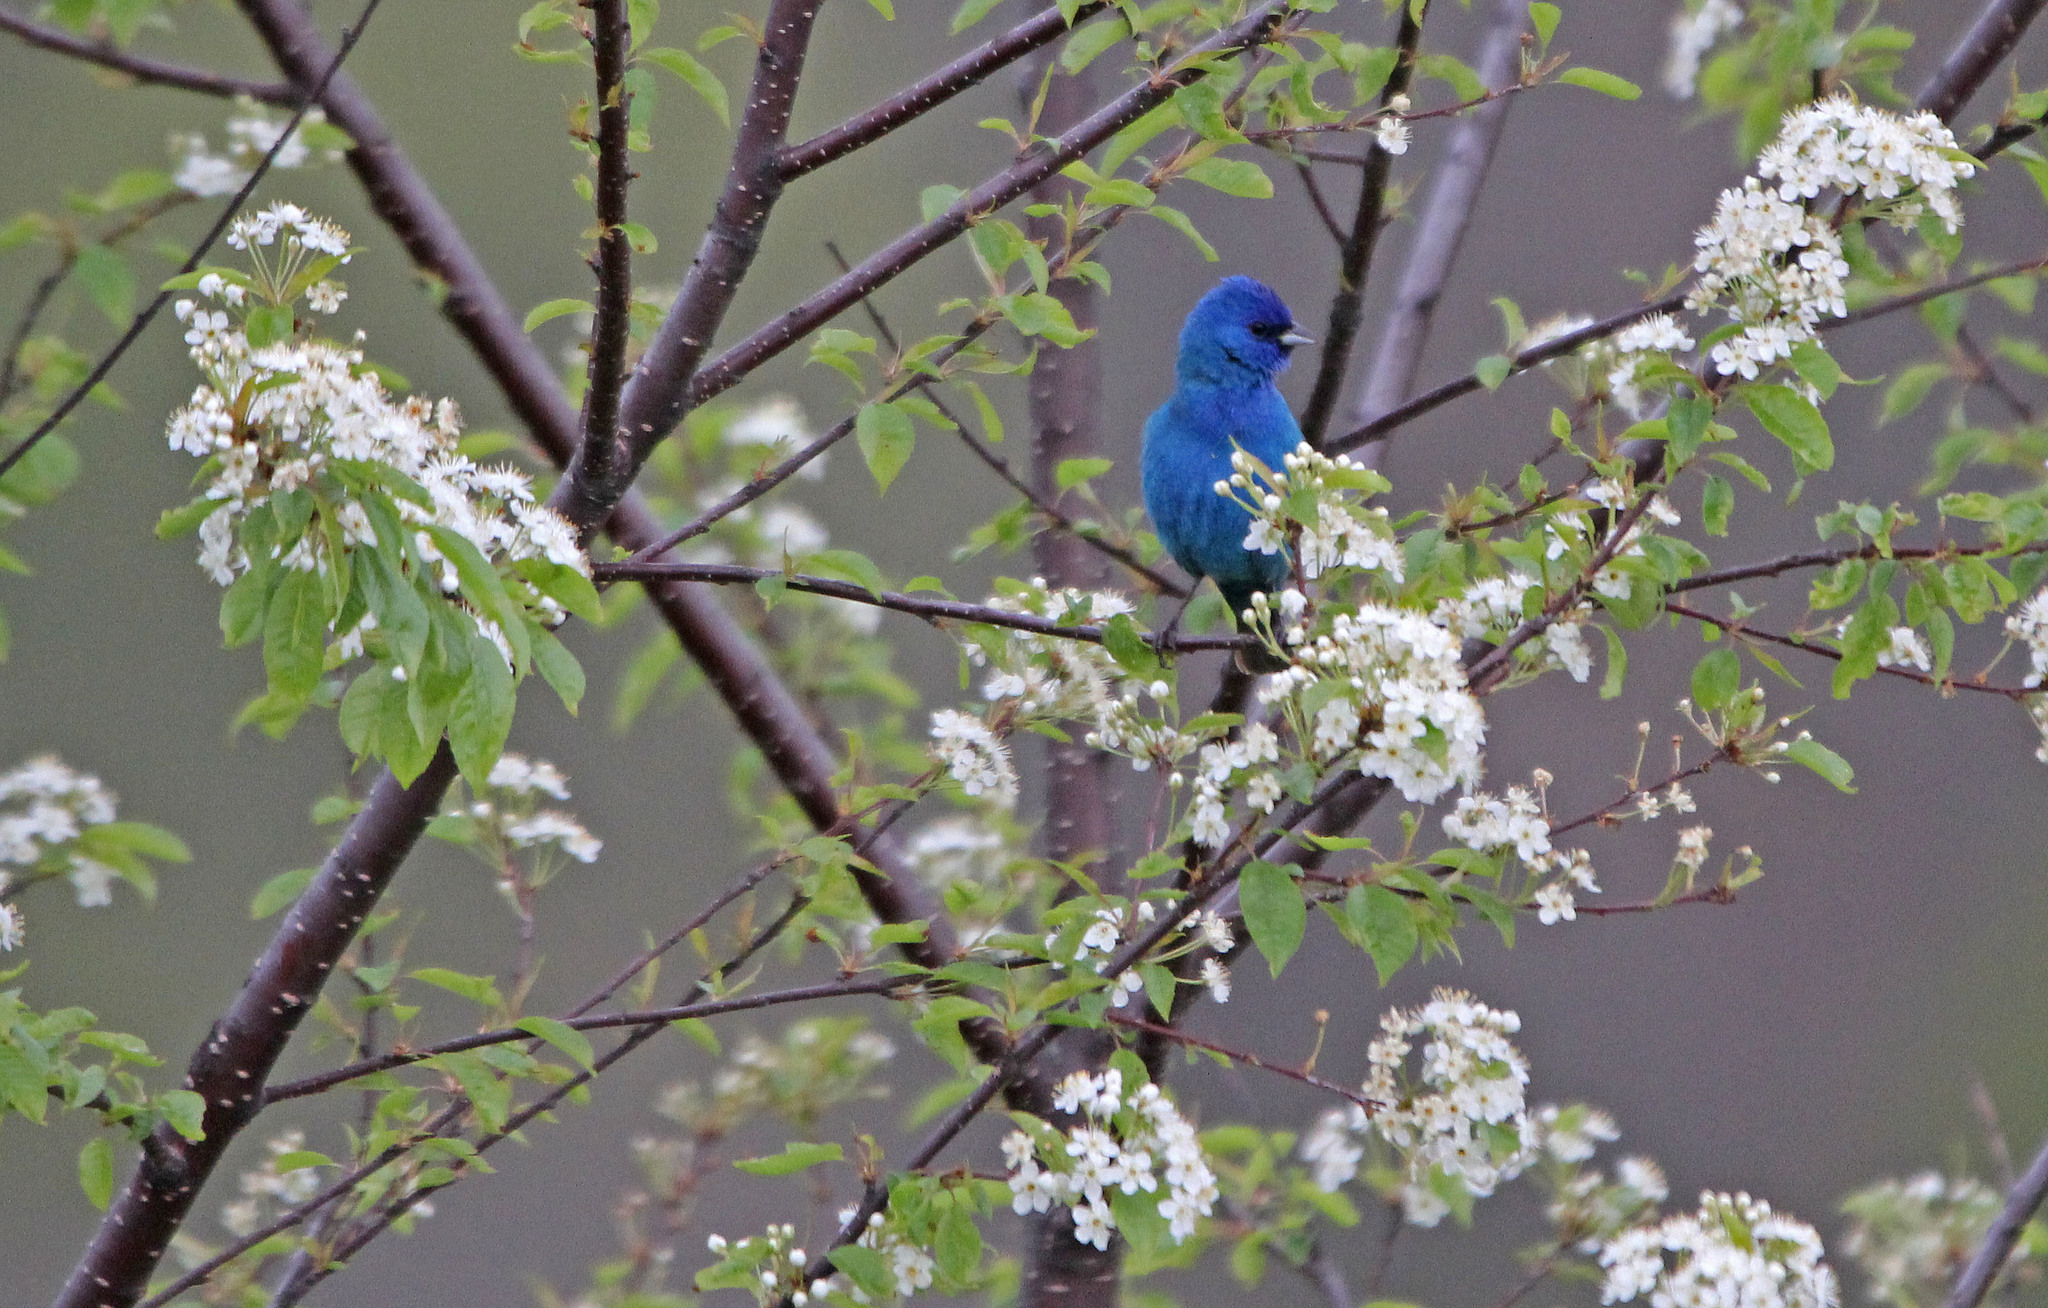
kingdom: Animalia
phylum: Chordata
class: Aves
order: Passeriformes
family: Cardinalidae
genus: Passerina
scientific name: Passerina cyanea
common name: Indigo bunting
